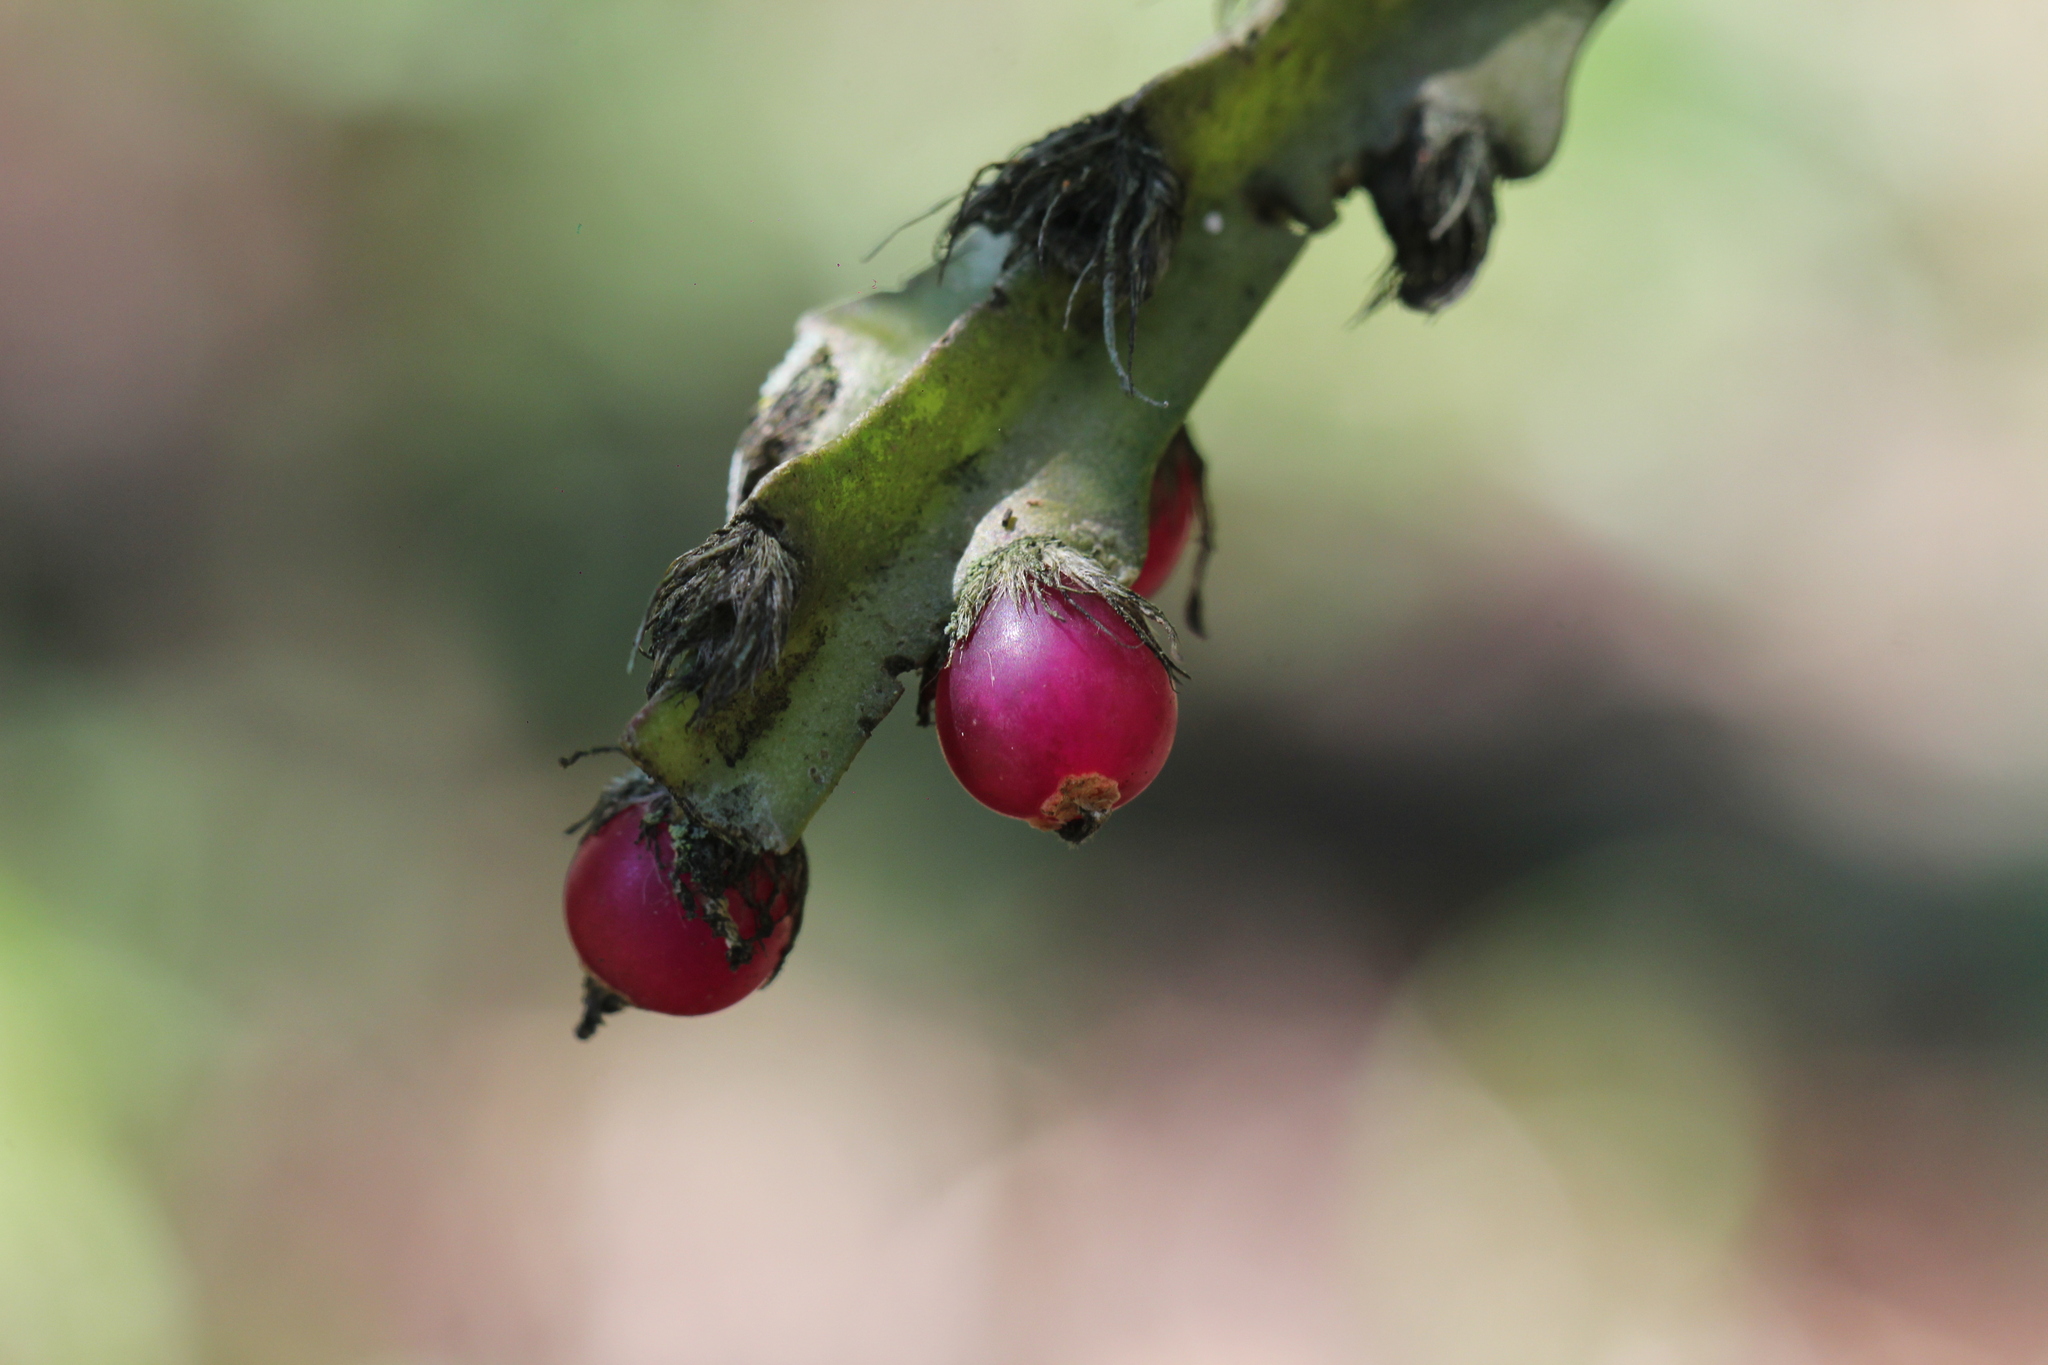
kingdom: Plantae
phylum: Tracheophyta
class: Magnoliopsida
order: Caryophyllales
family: Cactaceae
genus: Lepismium
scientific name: Lepismium cruciforme
